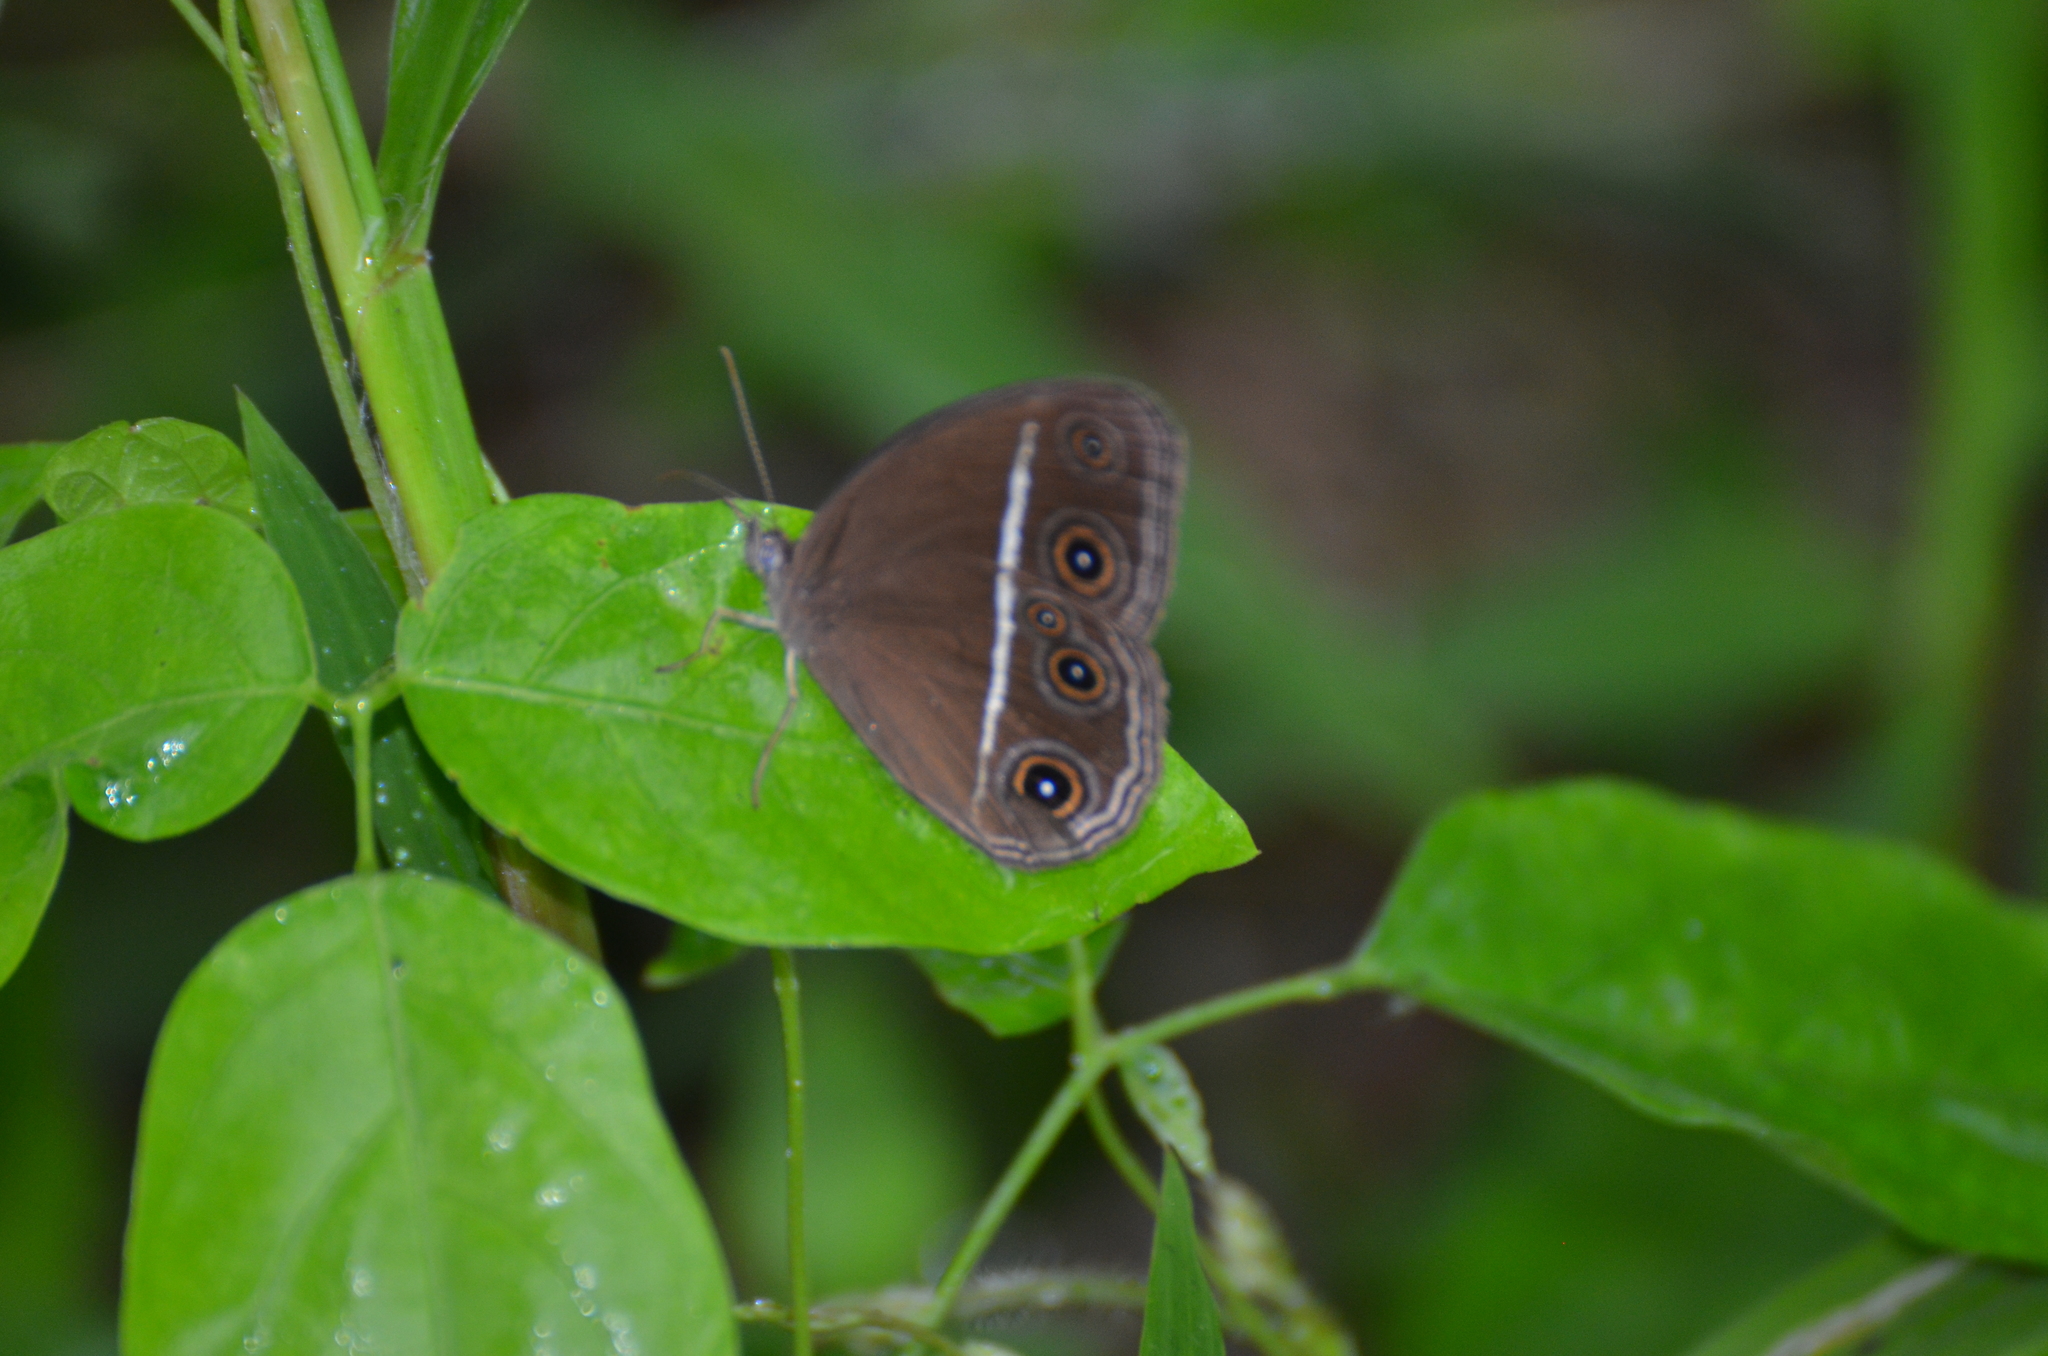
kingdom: Animalia
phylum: Arthropoda
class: Insecta
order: Lepidoptera
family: Nymphalidae
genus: Orsotriaena
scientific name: Orsotriaena medus
